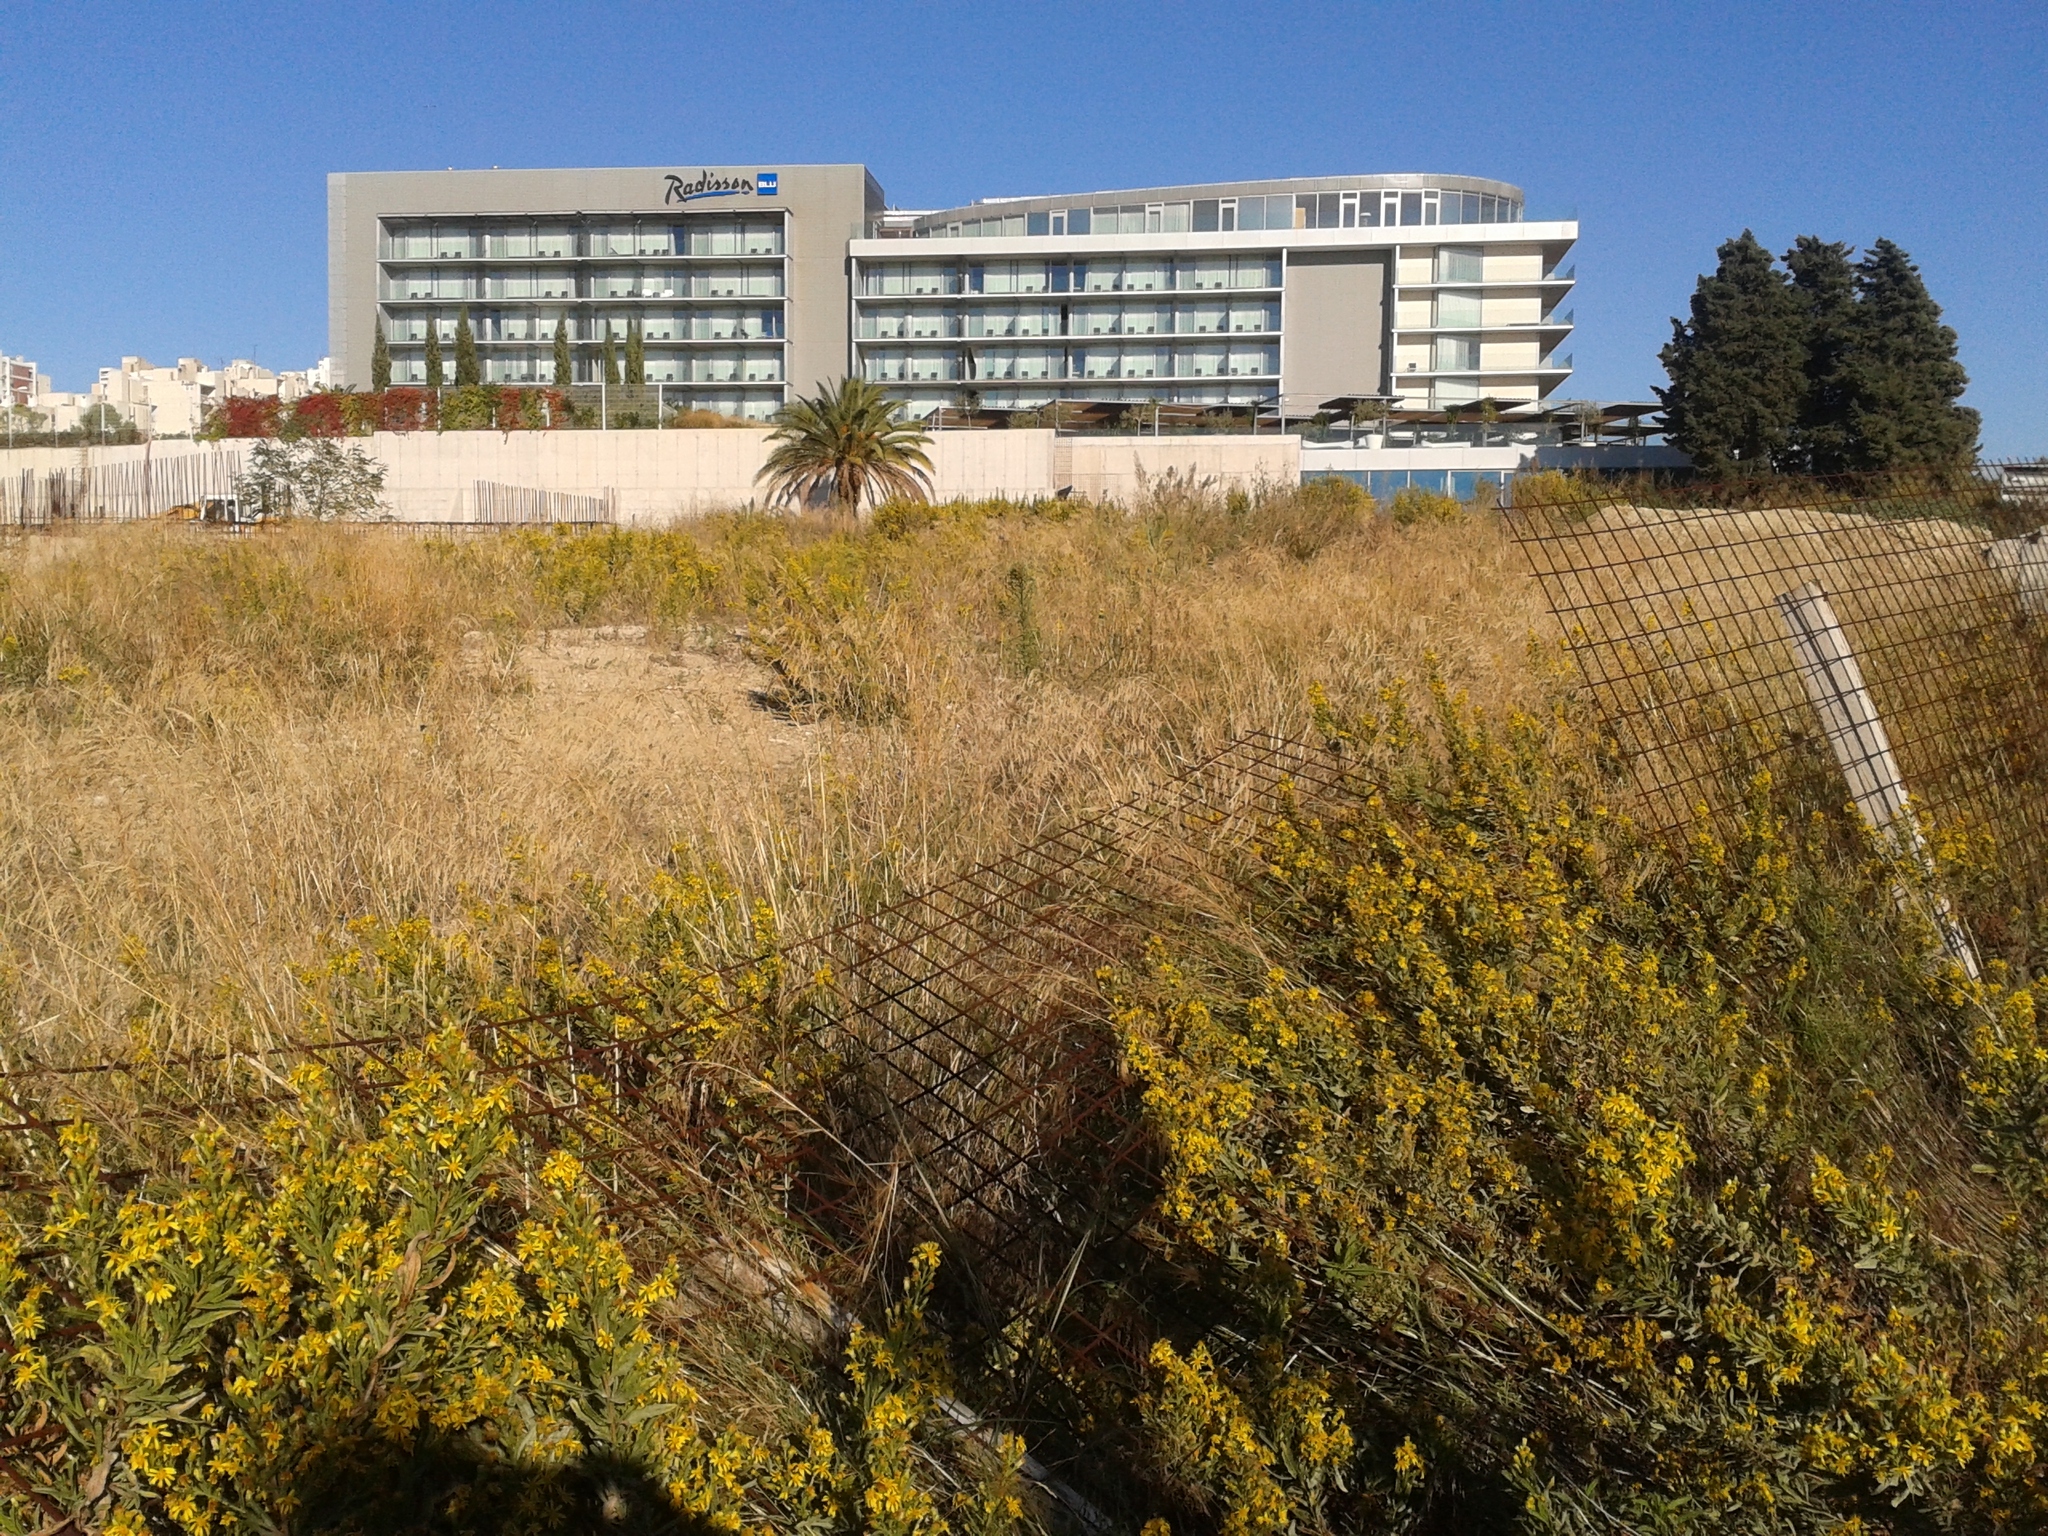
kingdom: Plantae
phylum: Tracheophyta
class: Magnoliopsida
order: Asterales
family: Asteraceae
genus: Dittrichia
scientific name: Dittrichia viscosa
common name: Woody fleabane
